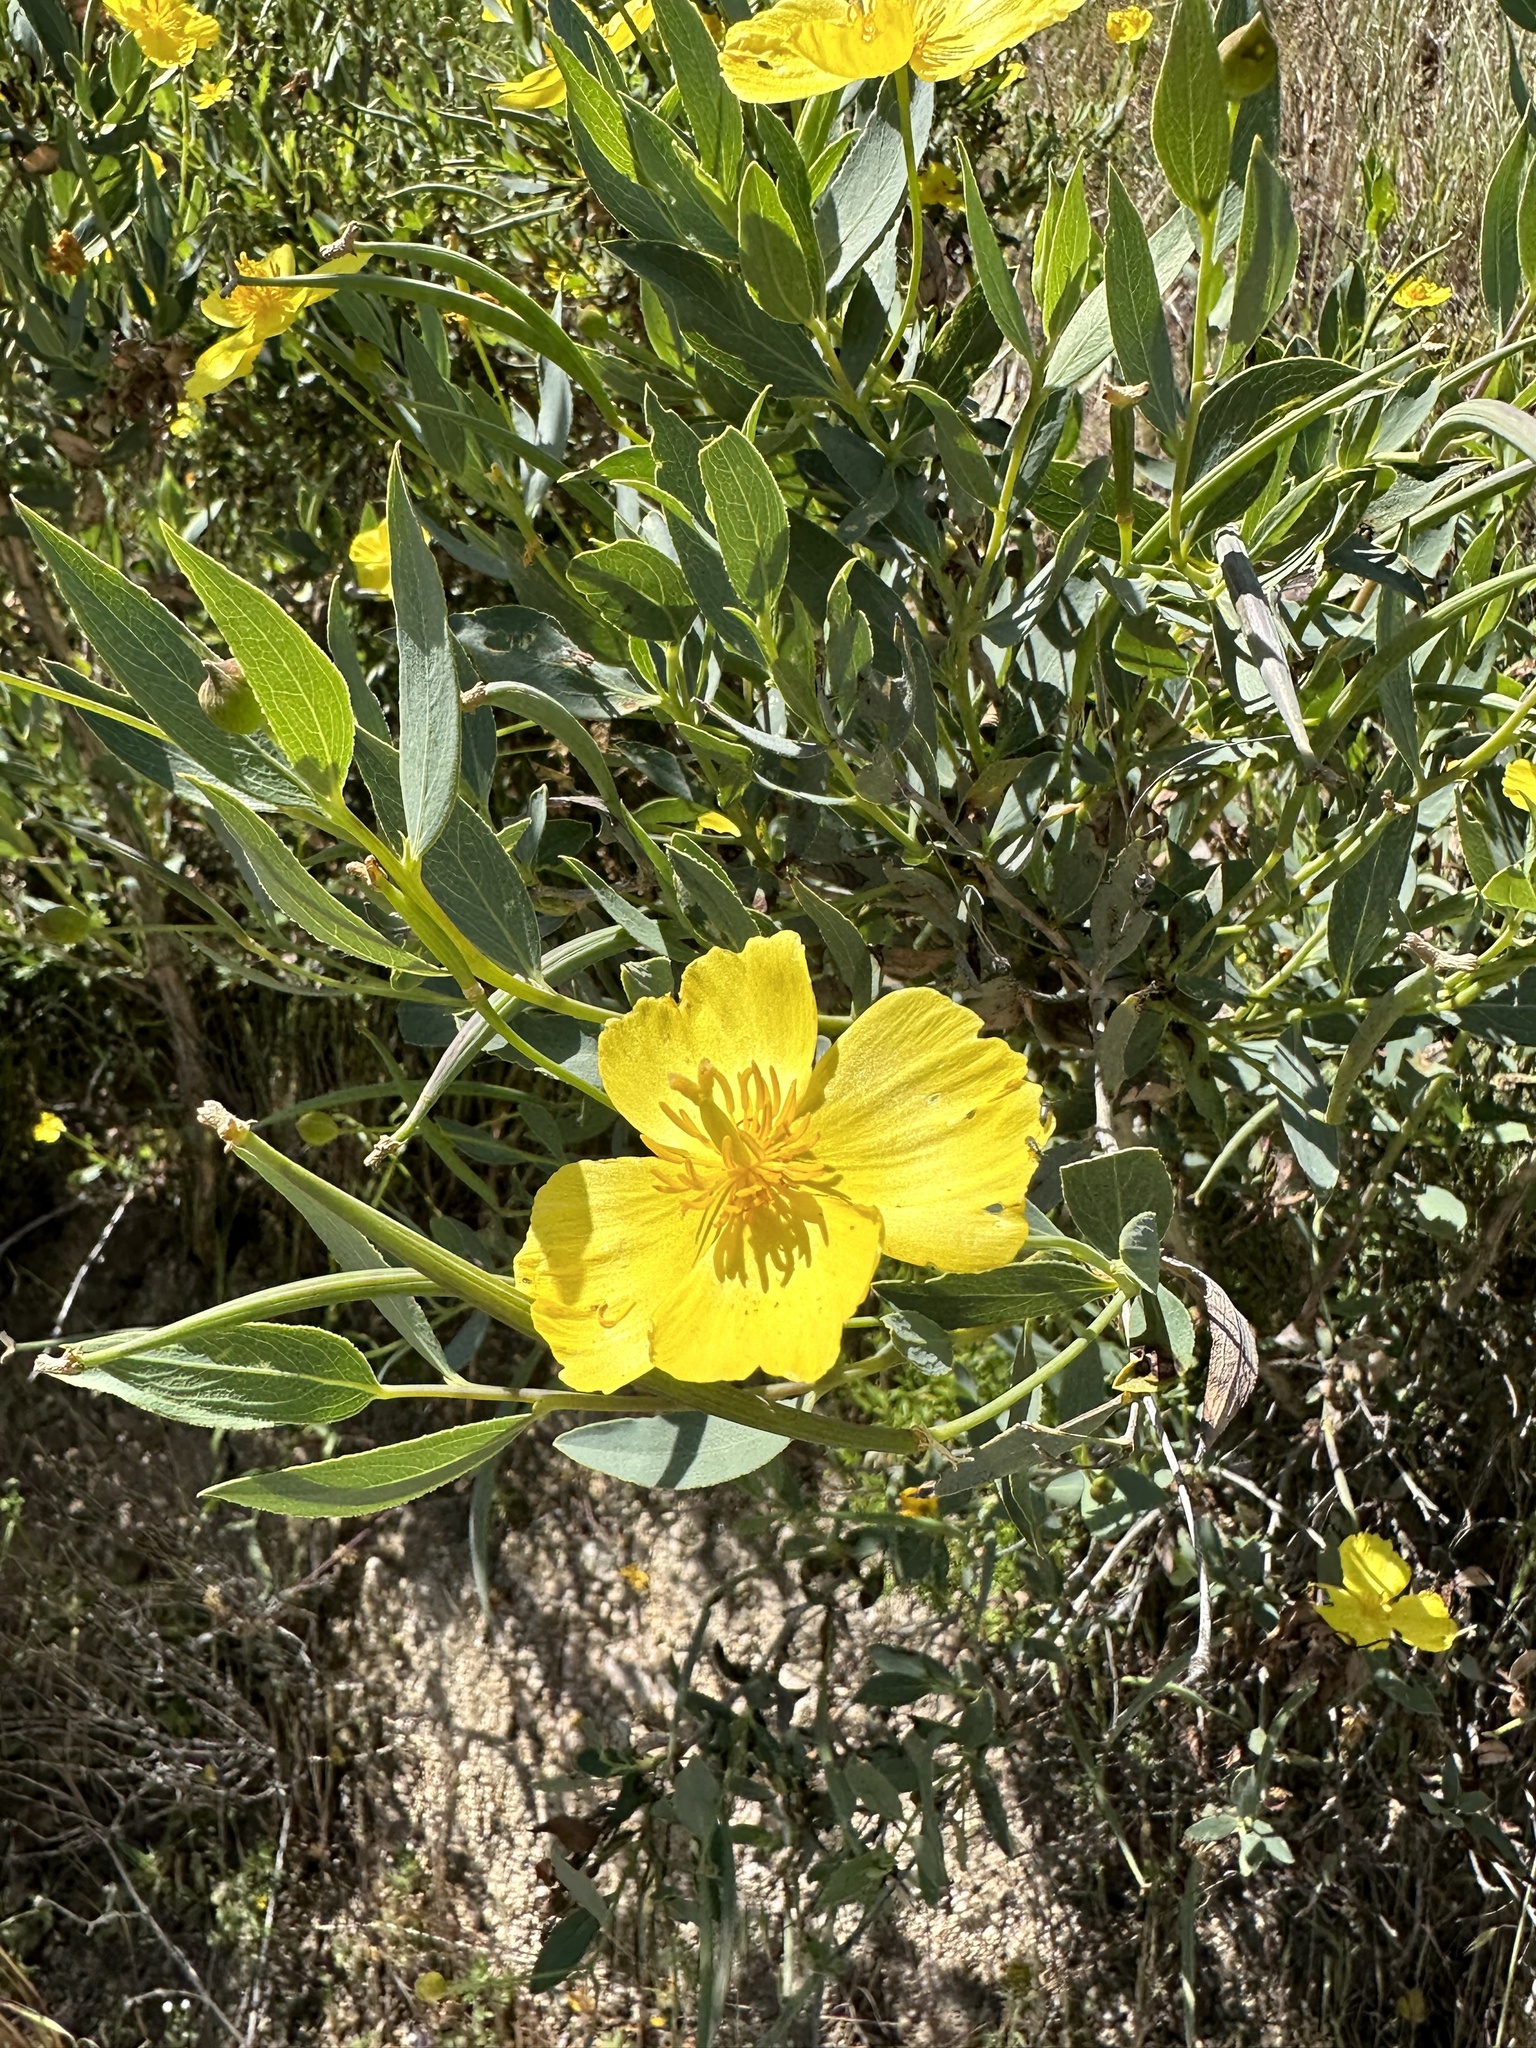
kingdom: Plantae
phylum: Tracheophyta
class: Magnoliopsida
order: Ranunculales
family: Papaveraceae
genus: Dendromecon
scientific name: Dendromecon rigida
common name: Tree poppy
